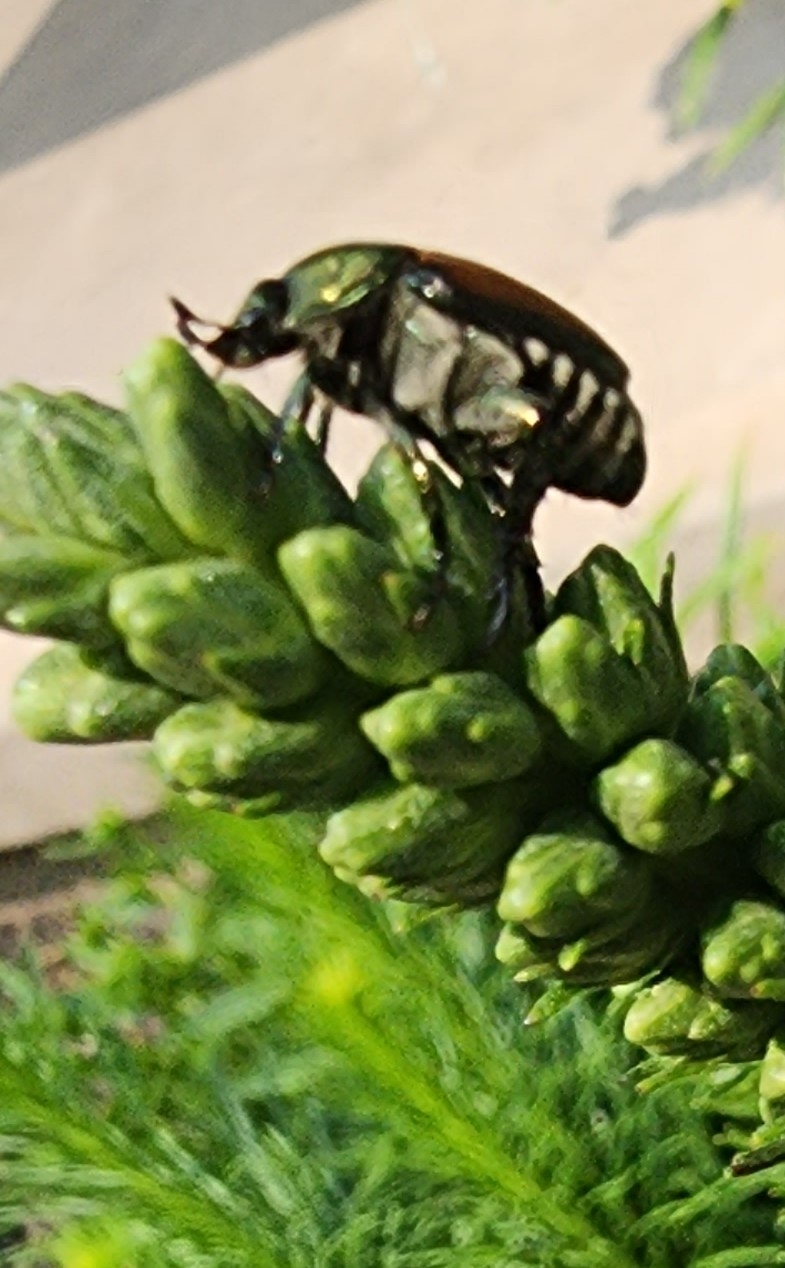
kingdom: Animalia
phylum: Arthropoda
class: Insecta
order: Coleoptera
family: Scarabaeidae
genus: Popillia
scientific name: Popillia japonica
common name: Japanese beetle
